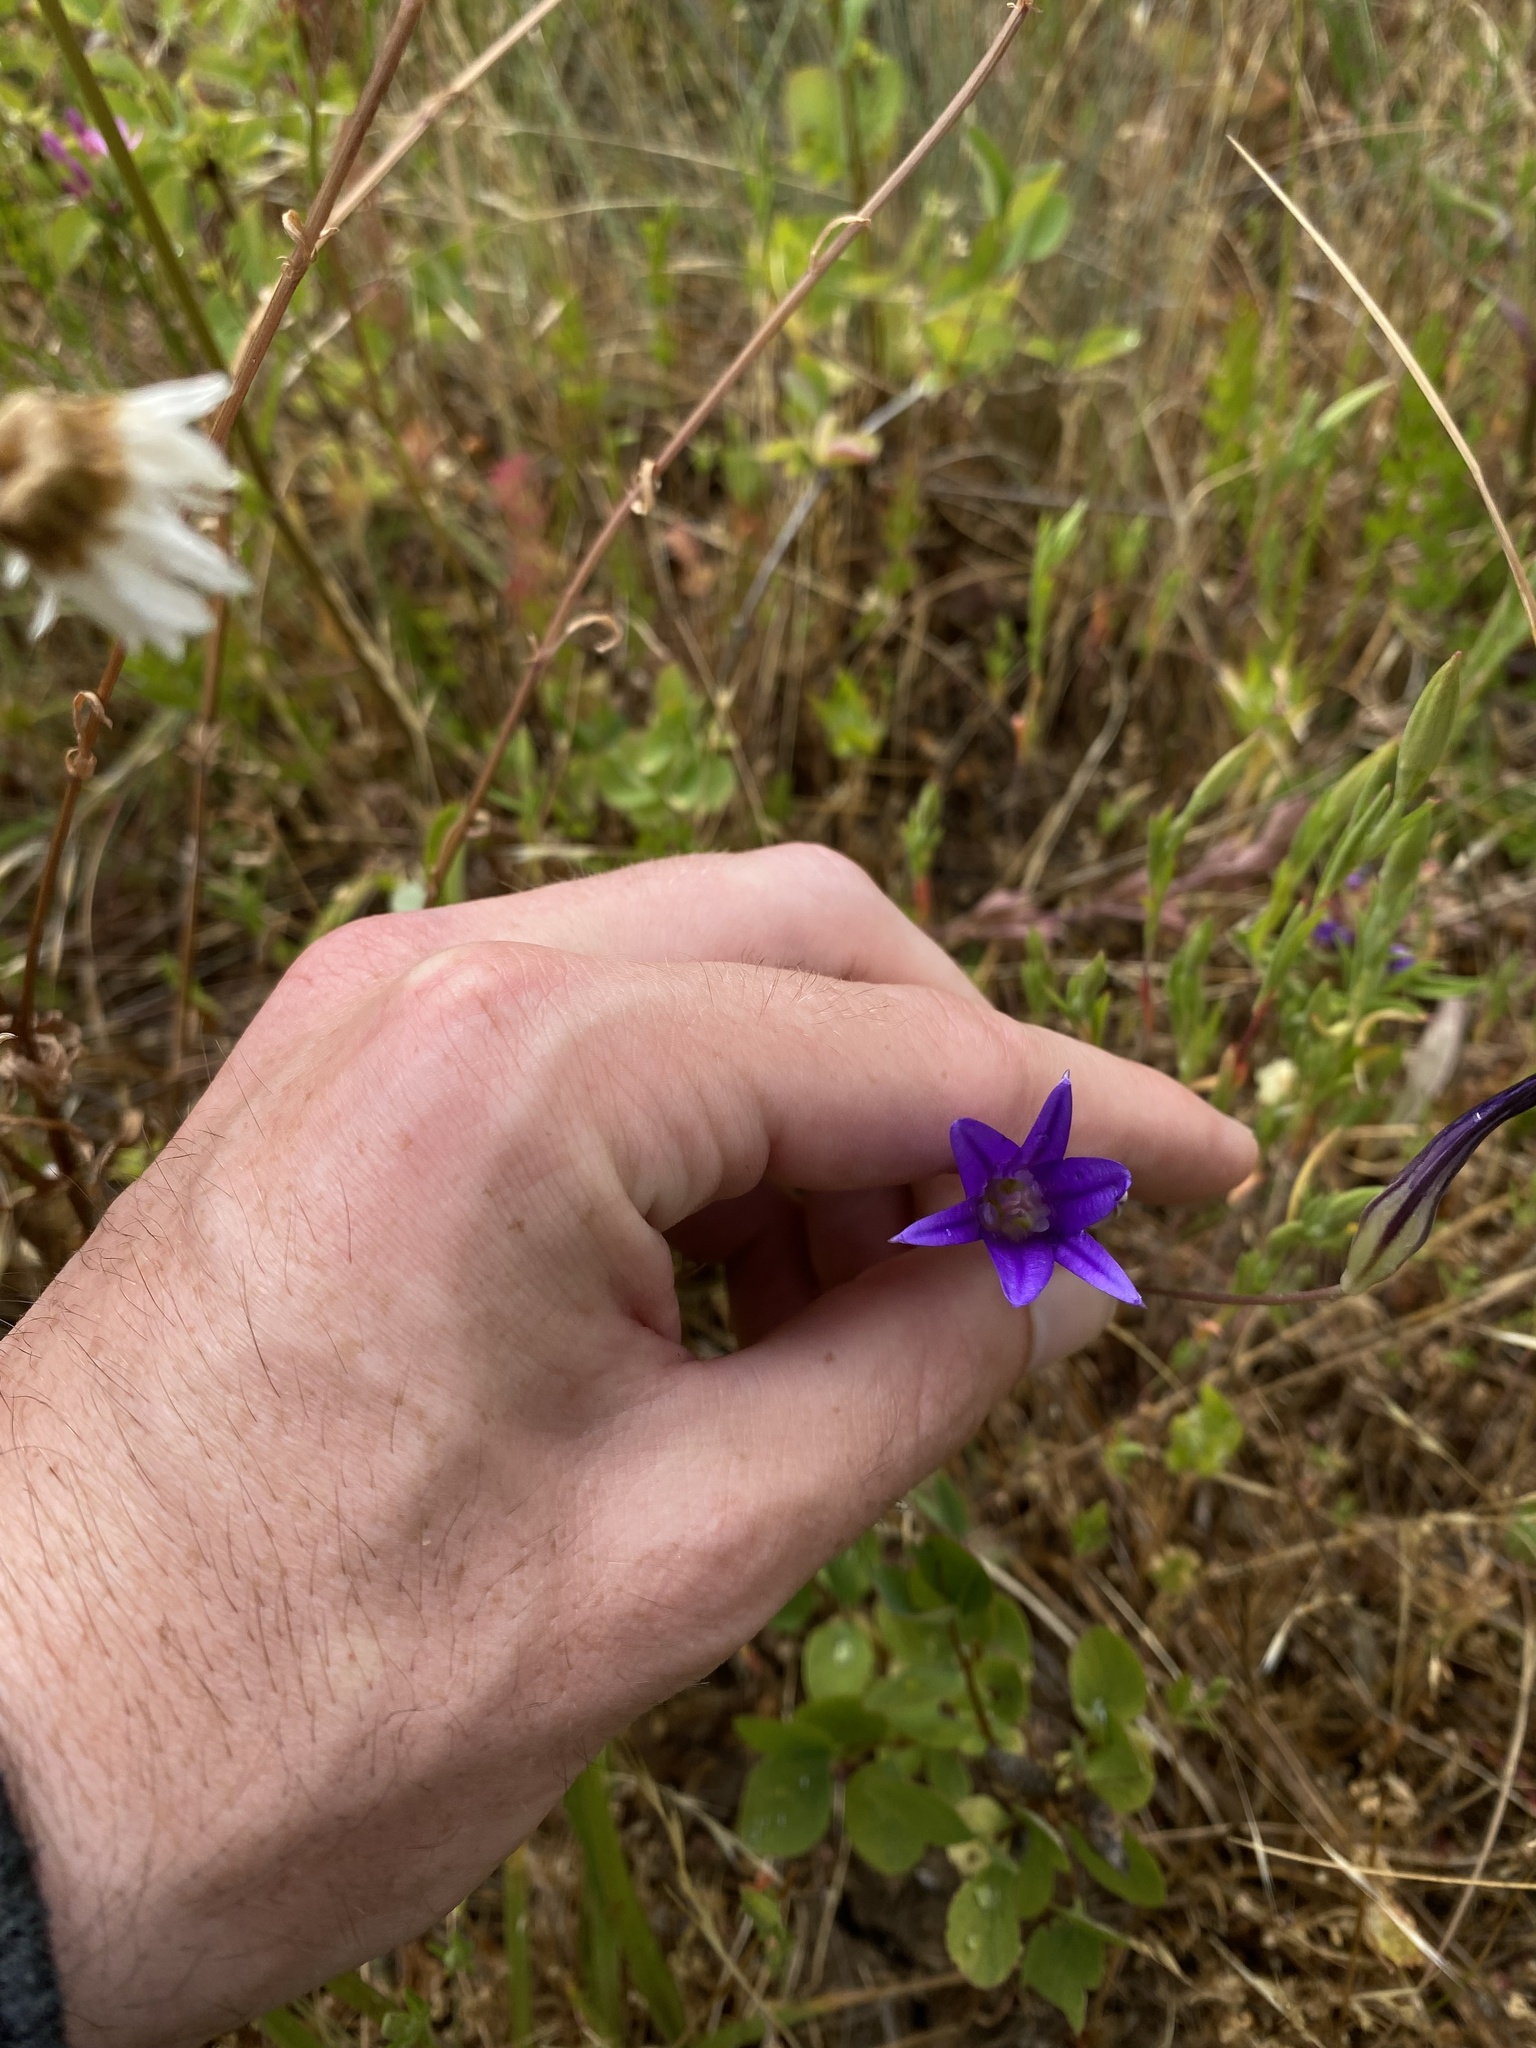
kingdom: Plantae
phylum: Tracheophyta
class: Liliopsida
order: Asparagales
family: Asparagaceae
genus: Brodiaea
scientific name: Brodiaea elegans
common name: Elegant cluster-lily
